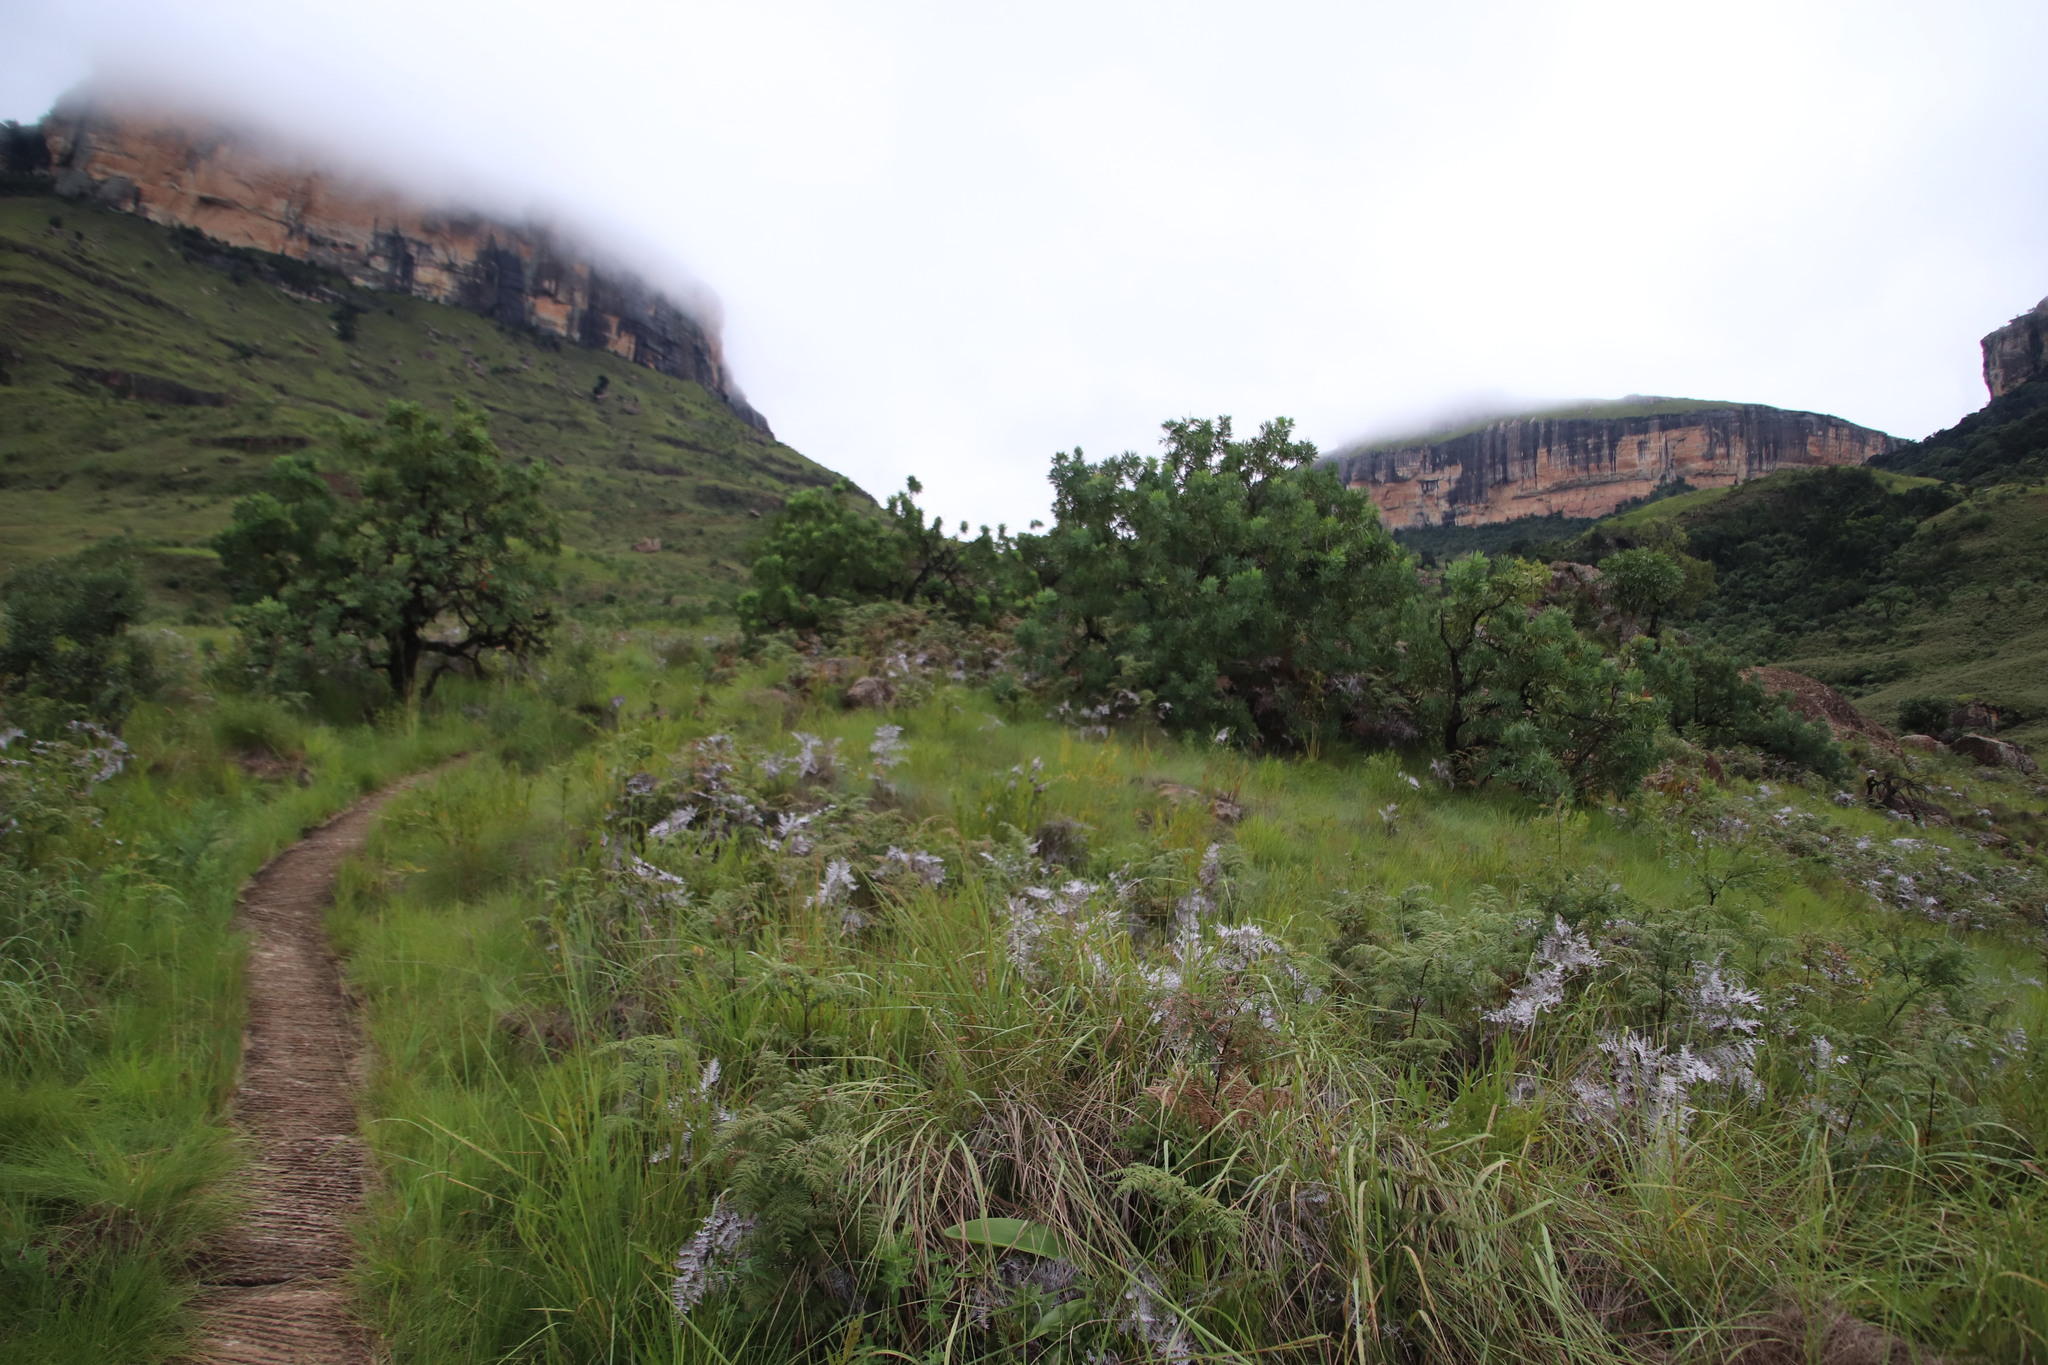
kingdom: Plantae
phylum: Tracheophyta
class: Magnoliopsida
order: Proteales
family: Proteaceae
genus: Protea
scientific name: Protea caffra
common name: Common sugarbush
